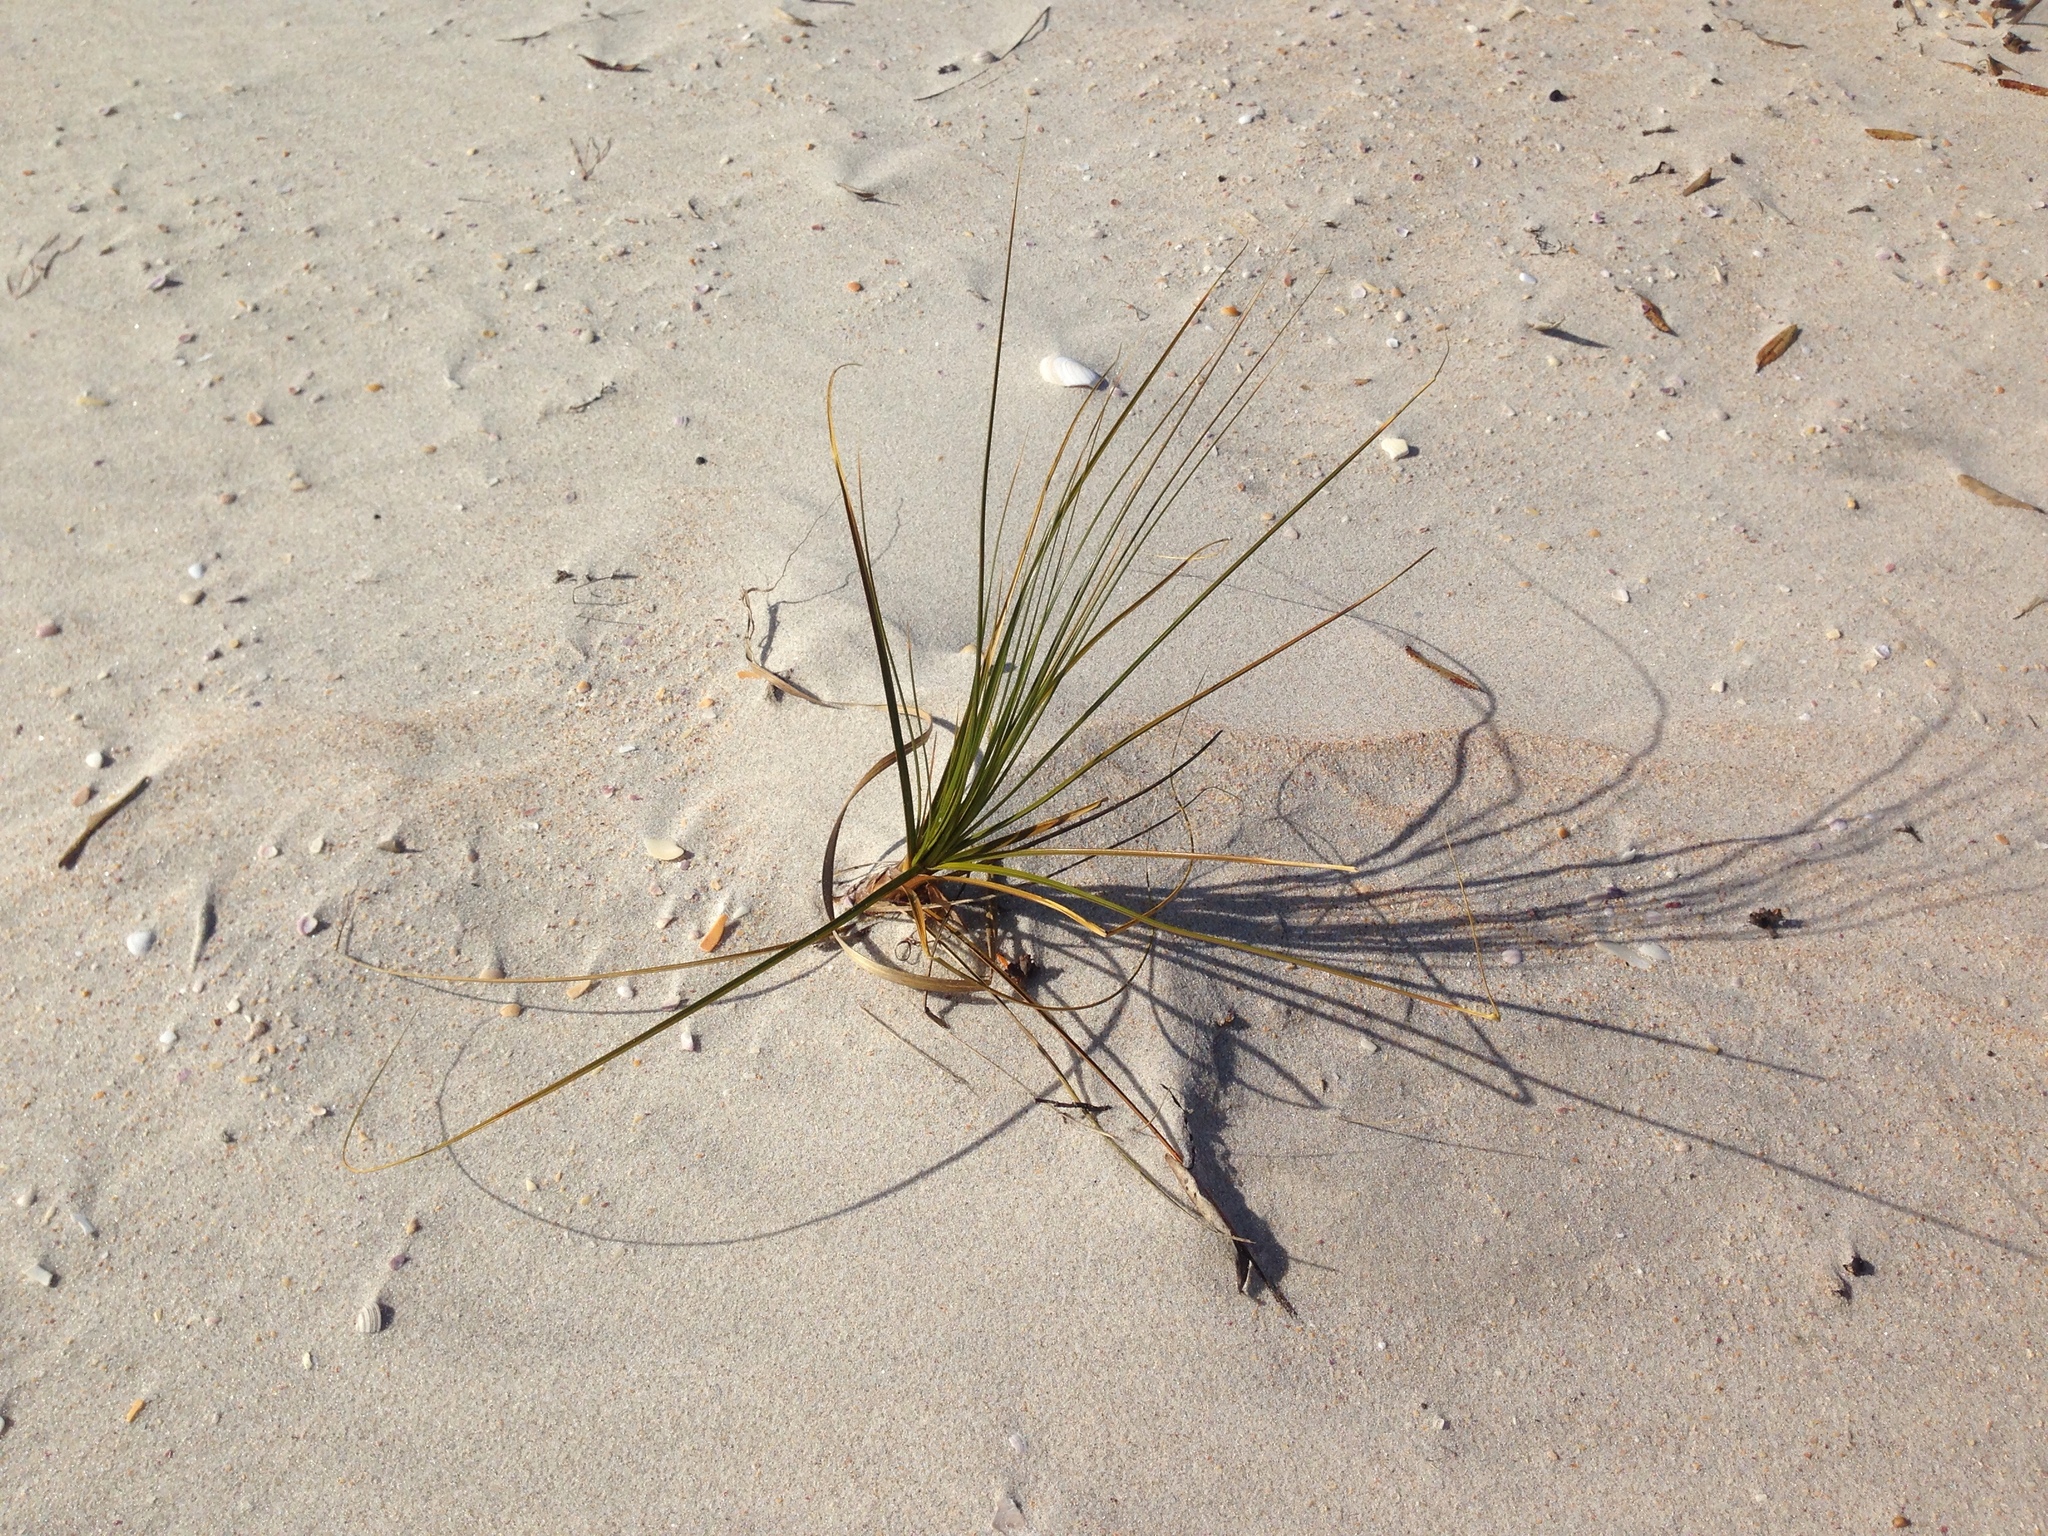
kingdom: Plantae
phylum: Tracheophyta
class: Liliopsida
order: Poales
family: Cyperaceae
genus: Ficinia
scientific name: Ficinia spiralis
